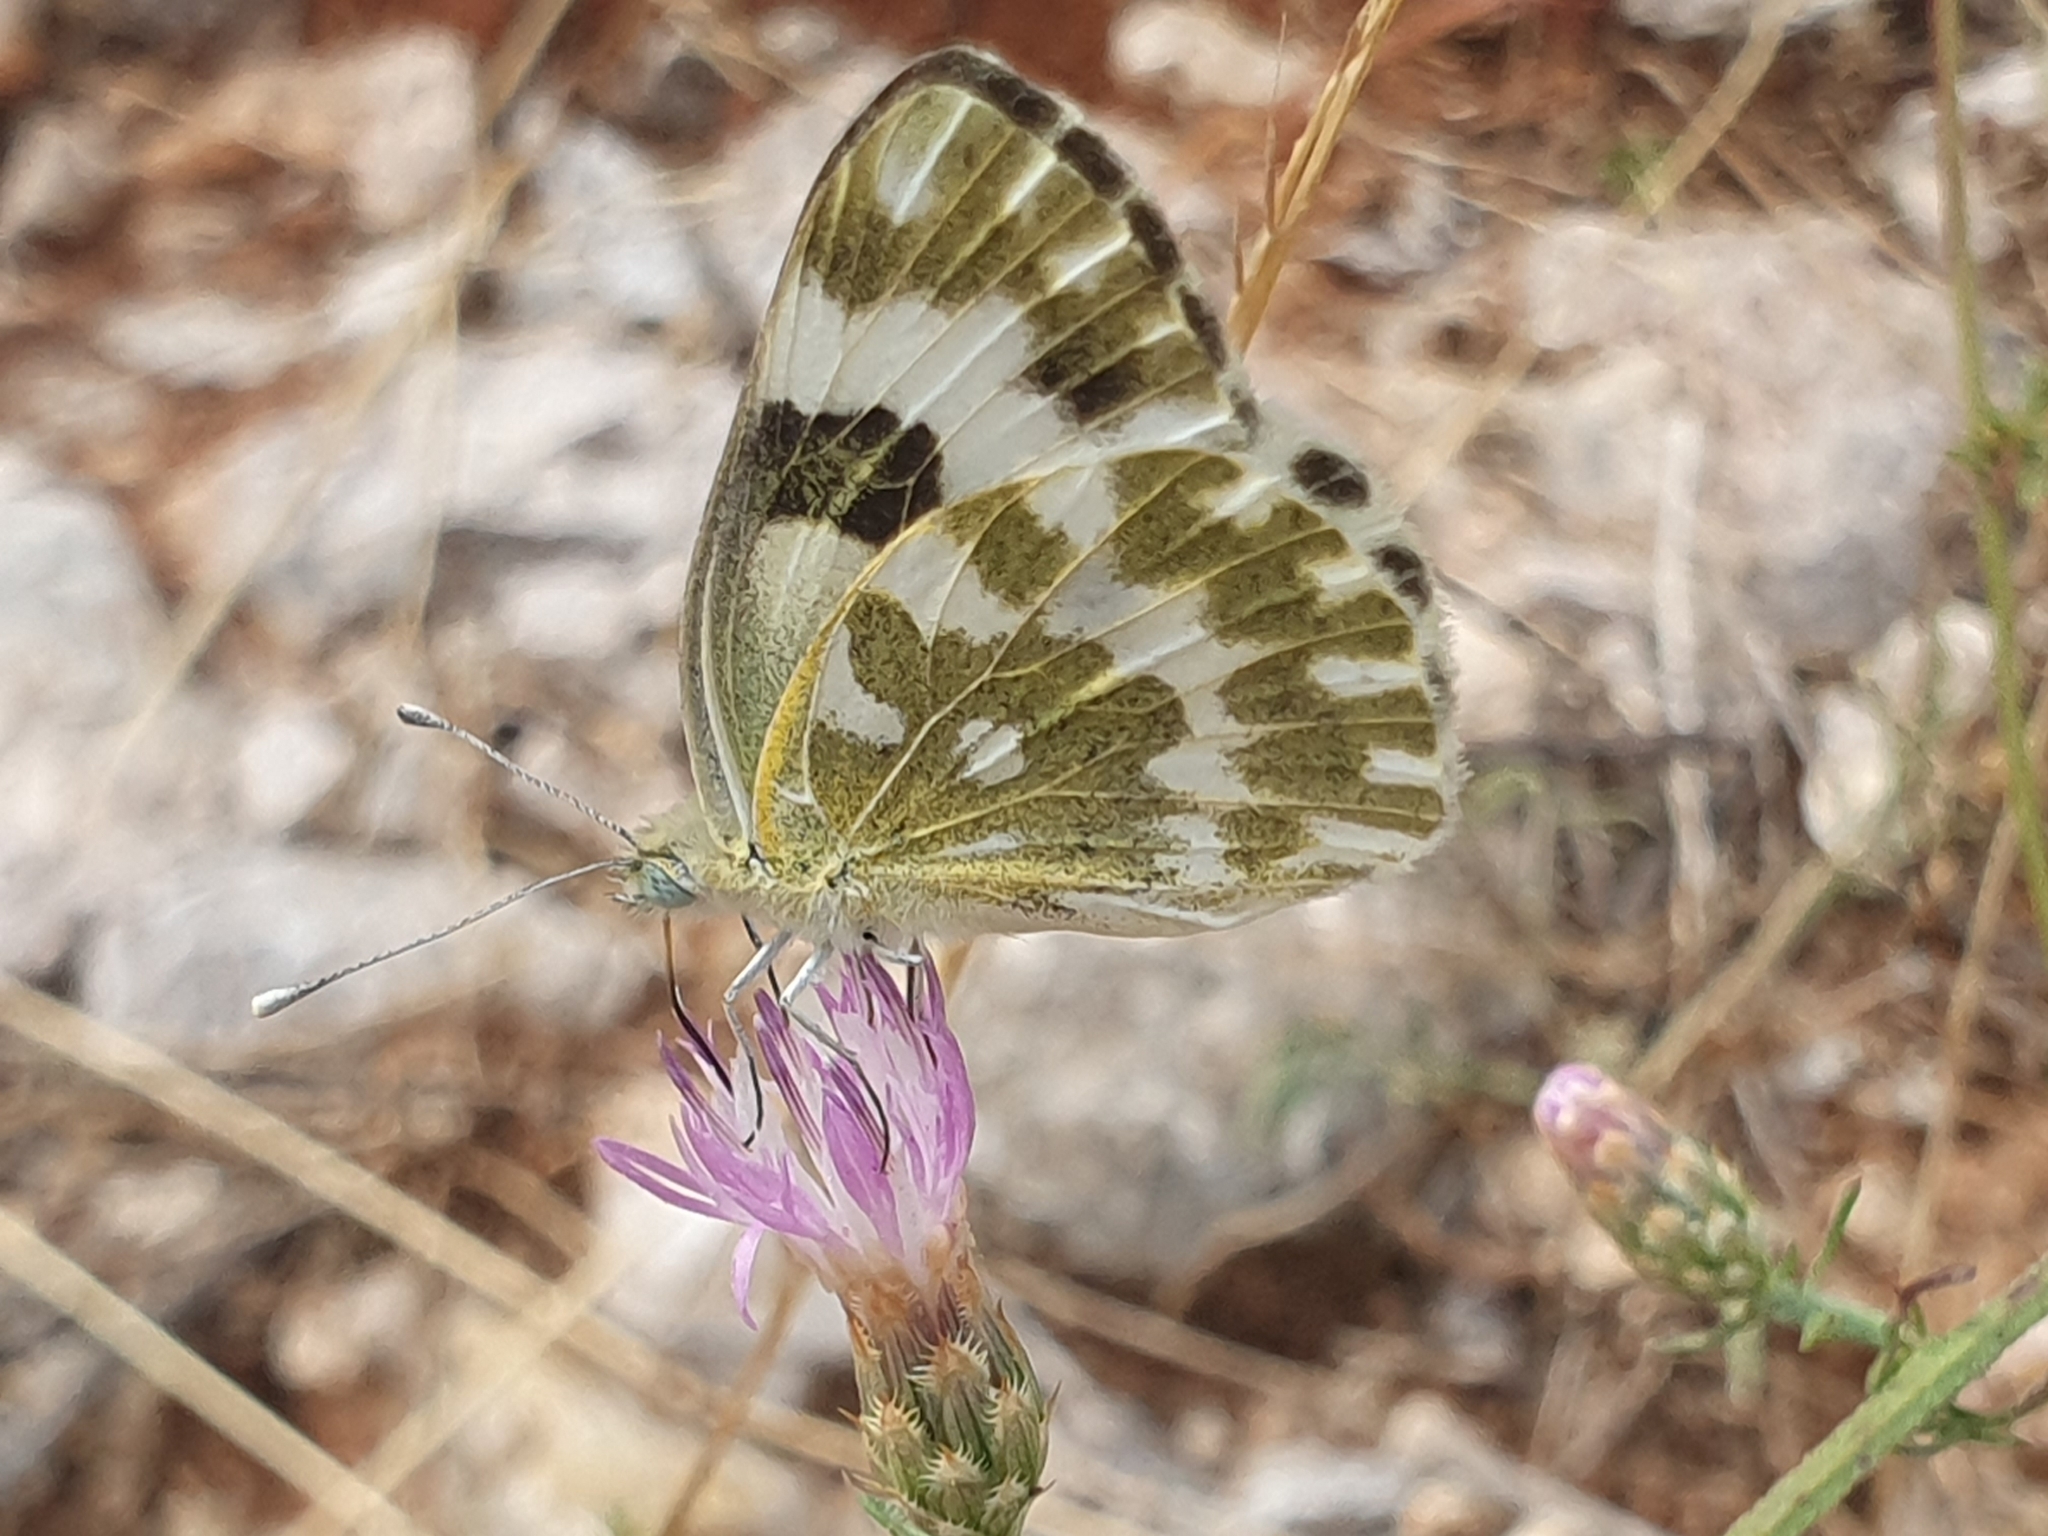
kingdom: Animalia
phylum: Arthropoda
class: Insecta
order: Lepidoptera
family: Pieridae
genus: Pontia
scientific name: Pontia edusa
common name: Eastern bath white
